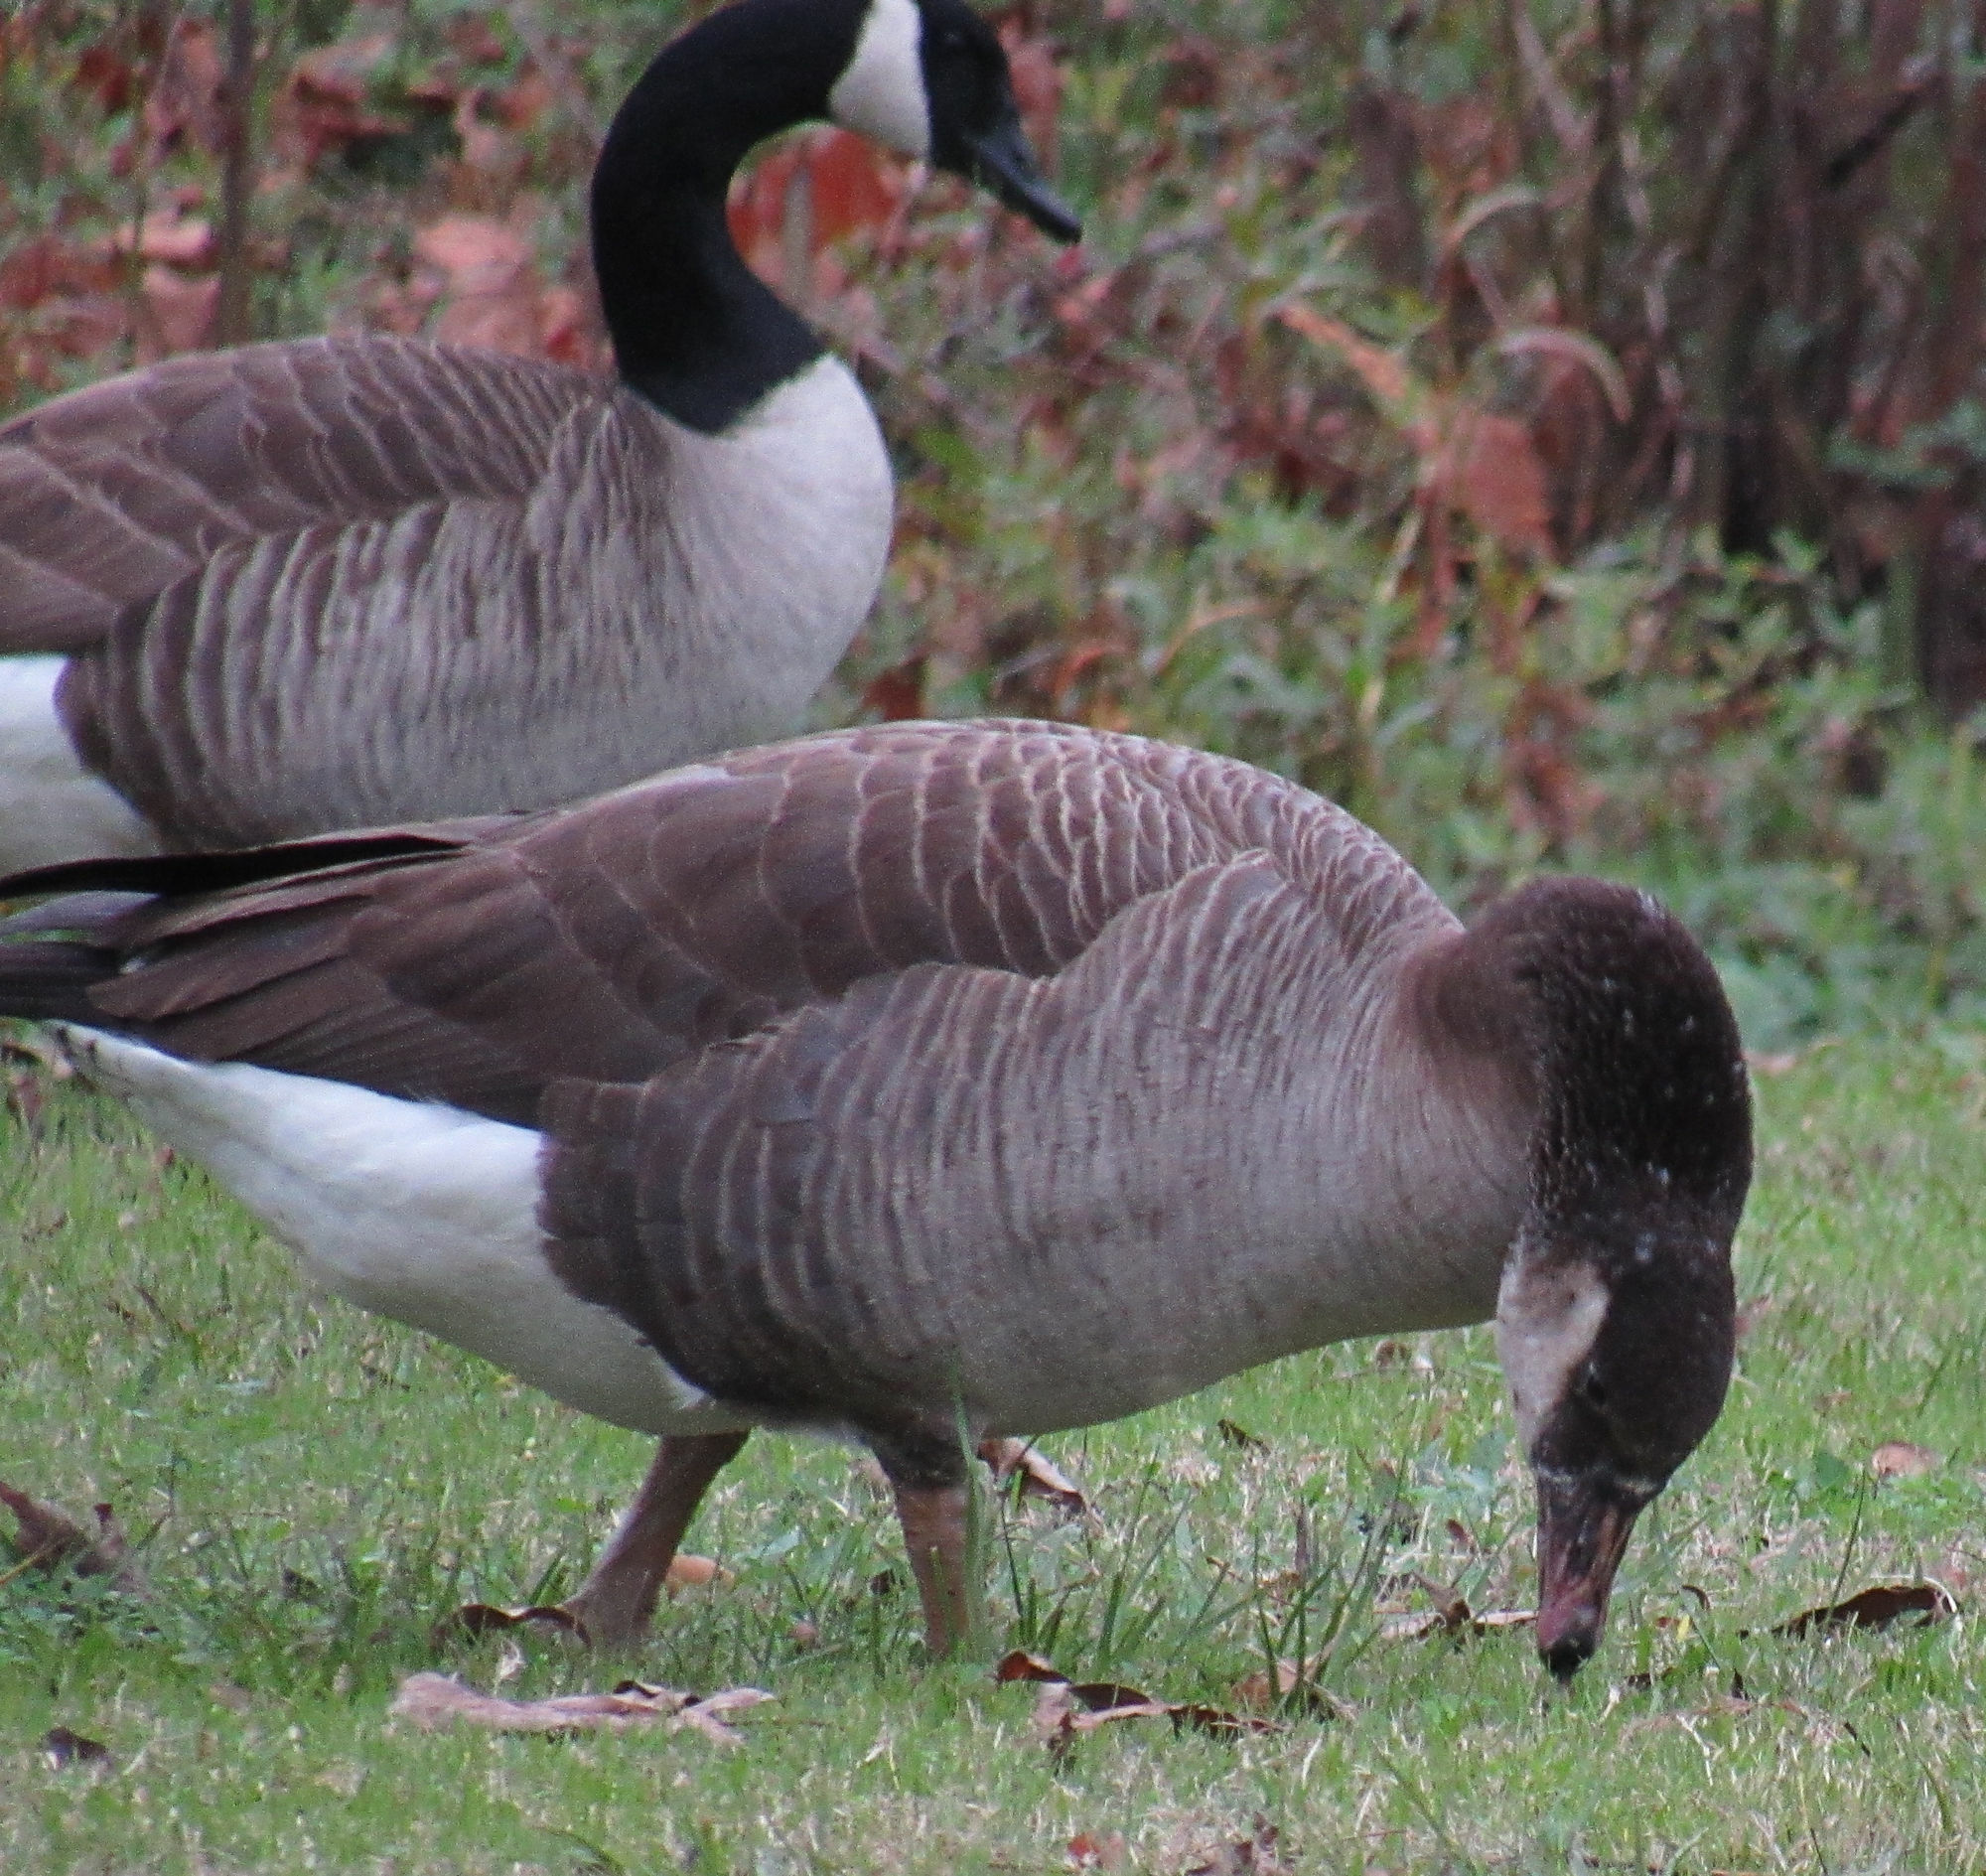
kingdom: Animalia
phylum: Chordata
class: Aves
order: Anseriformes
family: Anatidae
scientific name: Anatidae
